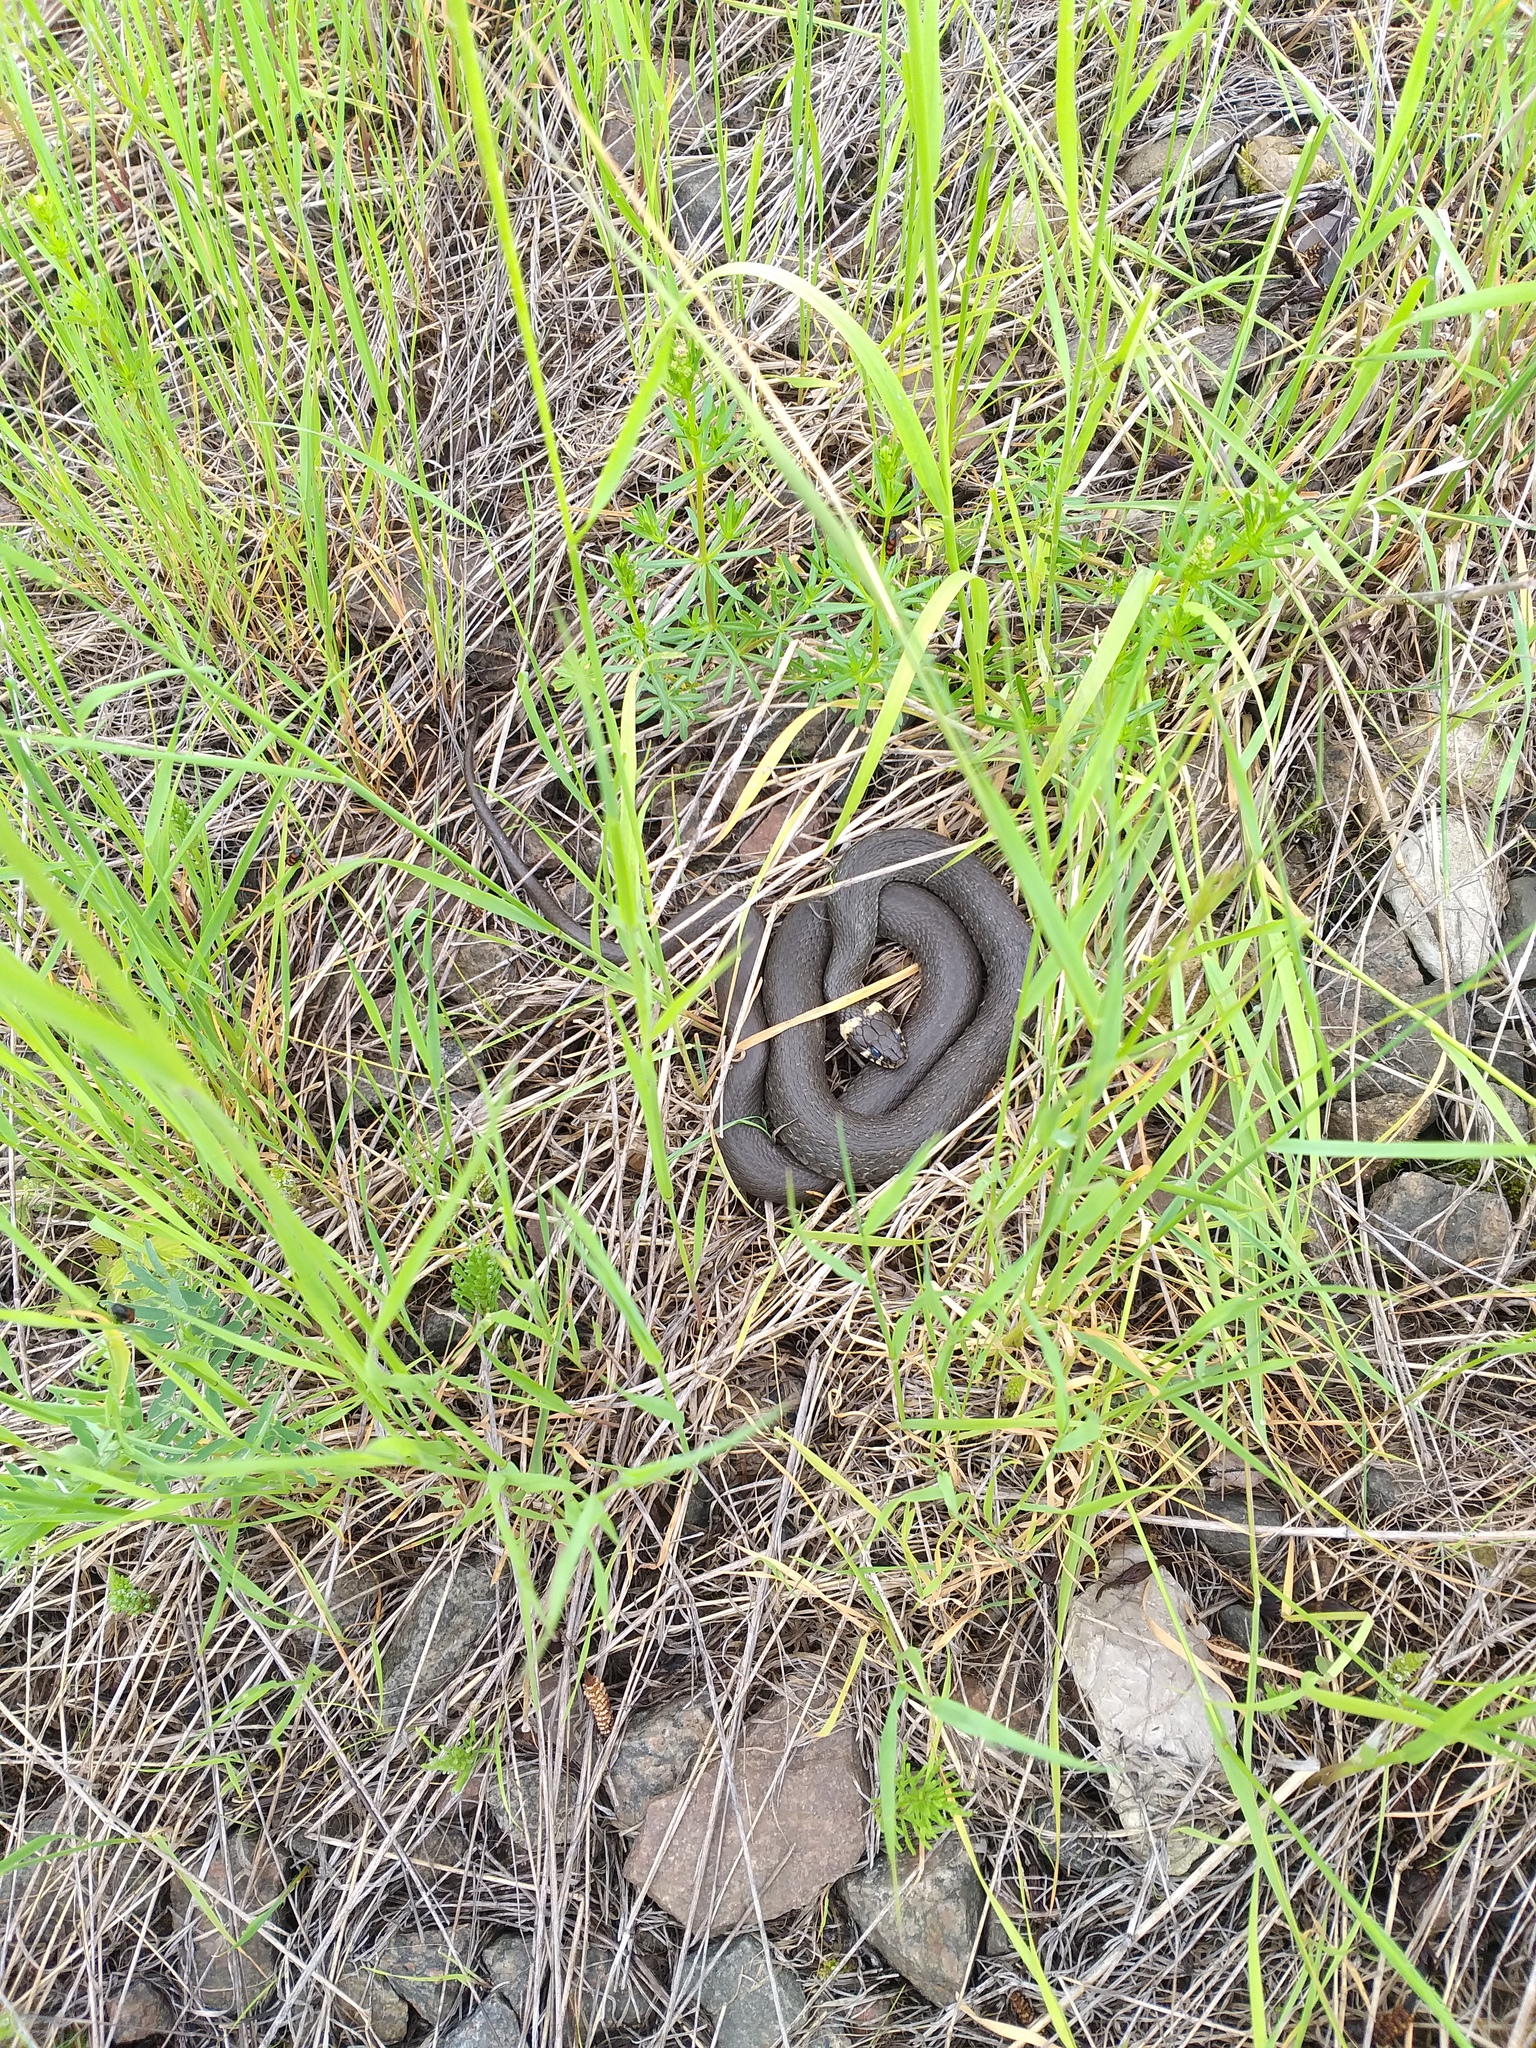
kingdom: Animalia
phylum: Chordata
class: Squamata
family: Colubridae
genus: Natrix
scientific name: Natrix natrix
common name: Grass snake
